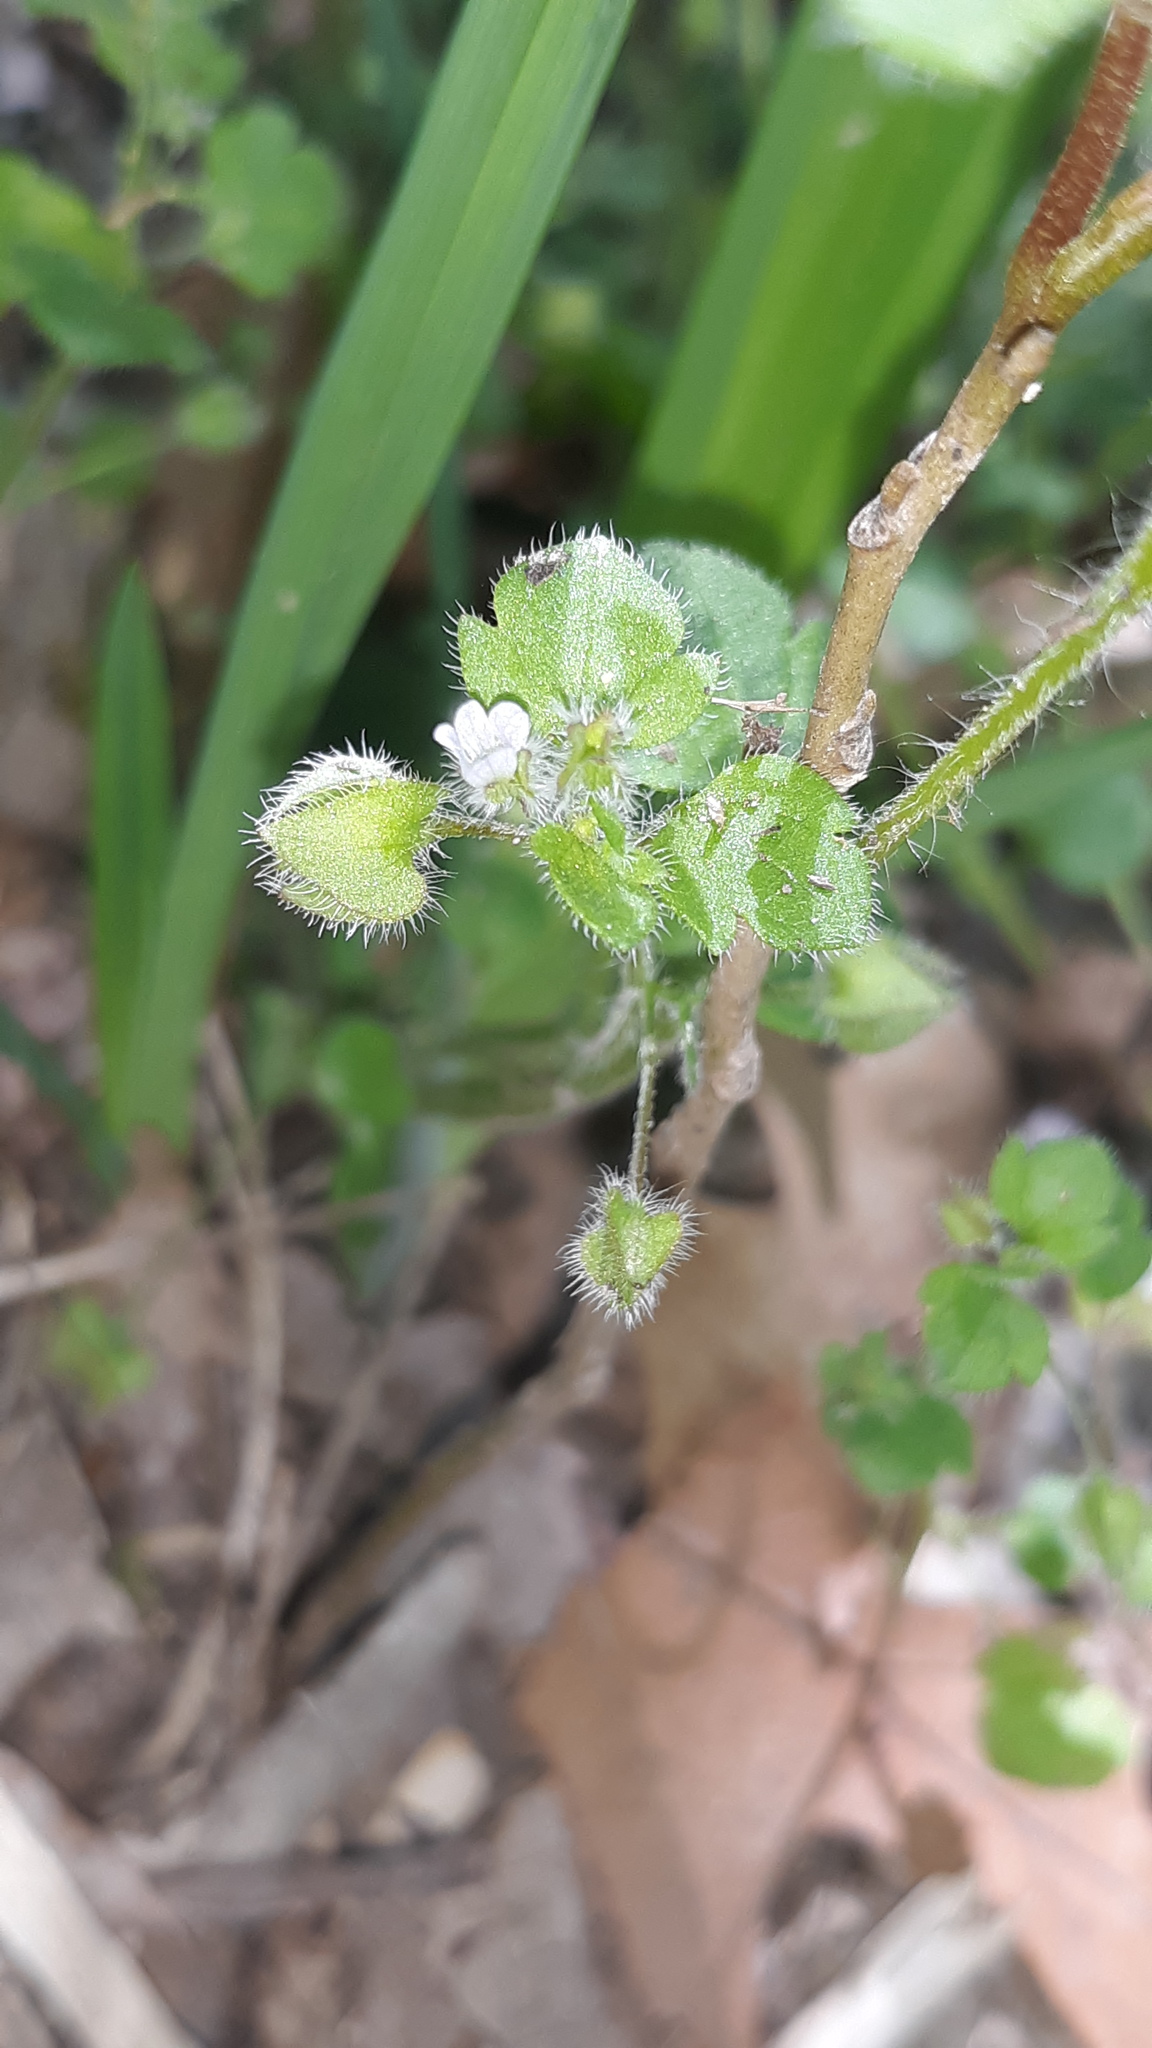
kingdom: Plantae
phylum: Tracheophyta
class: Magnoliopsida
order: Lamiales
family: Plantaginaceae
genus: Veronica
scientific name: Veronica sublobata
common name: False ivy-leaved speedwell
